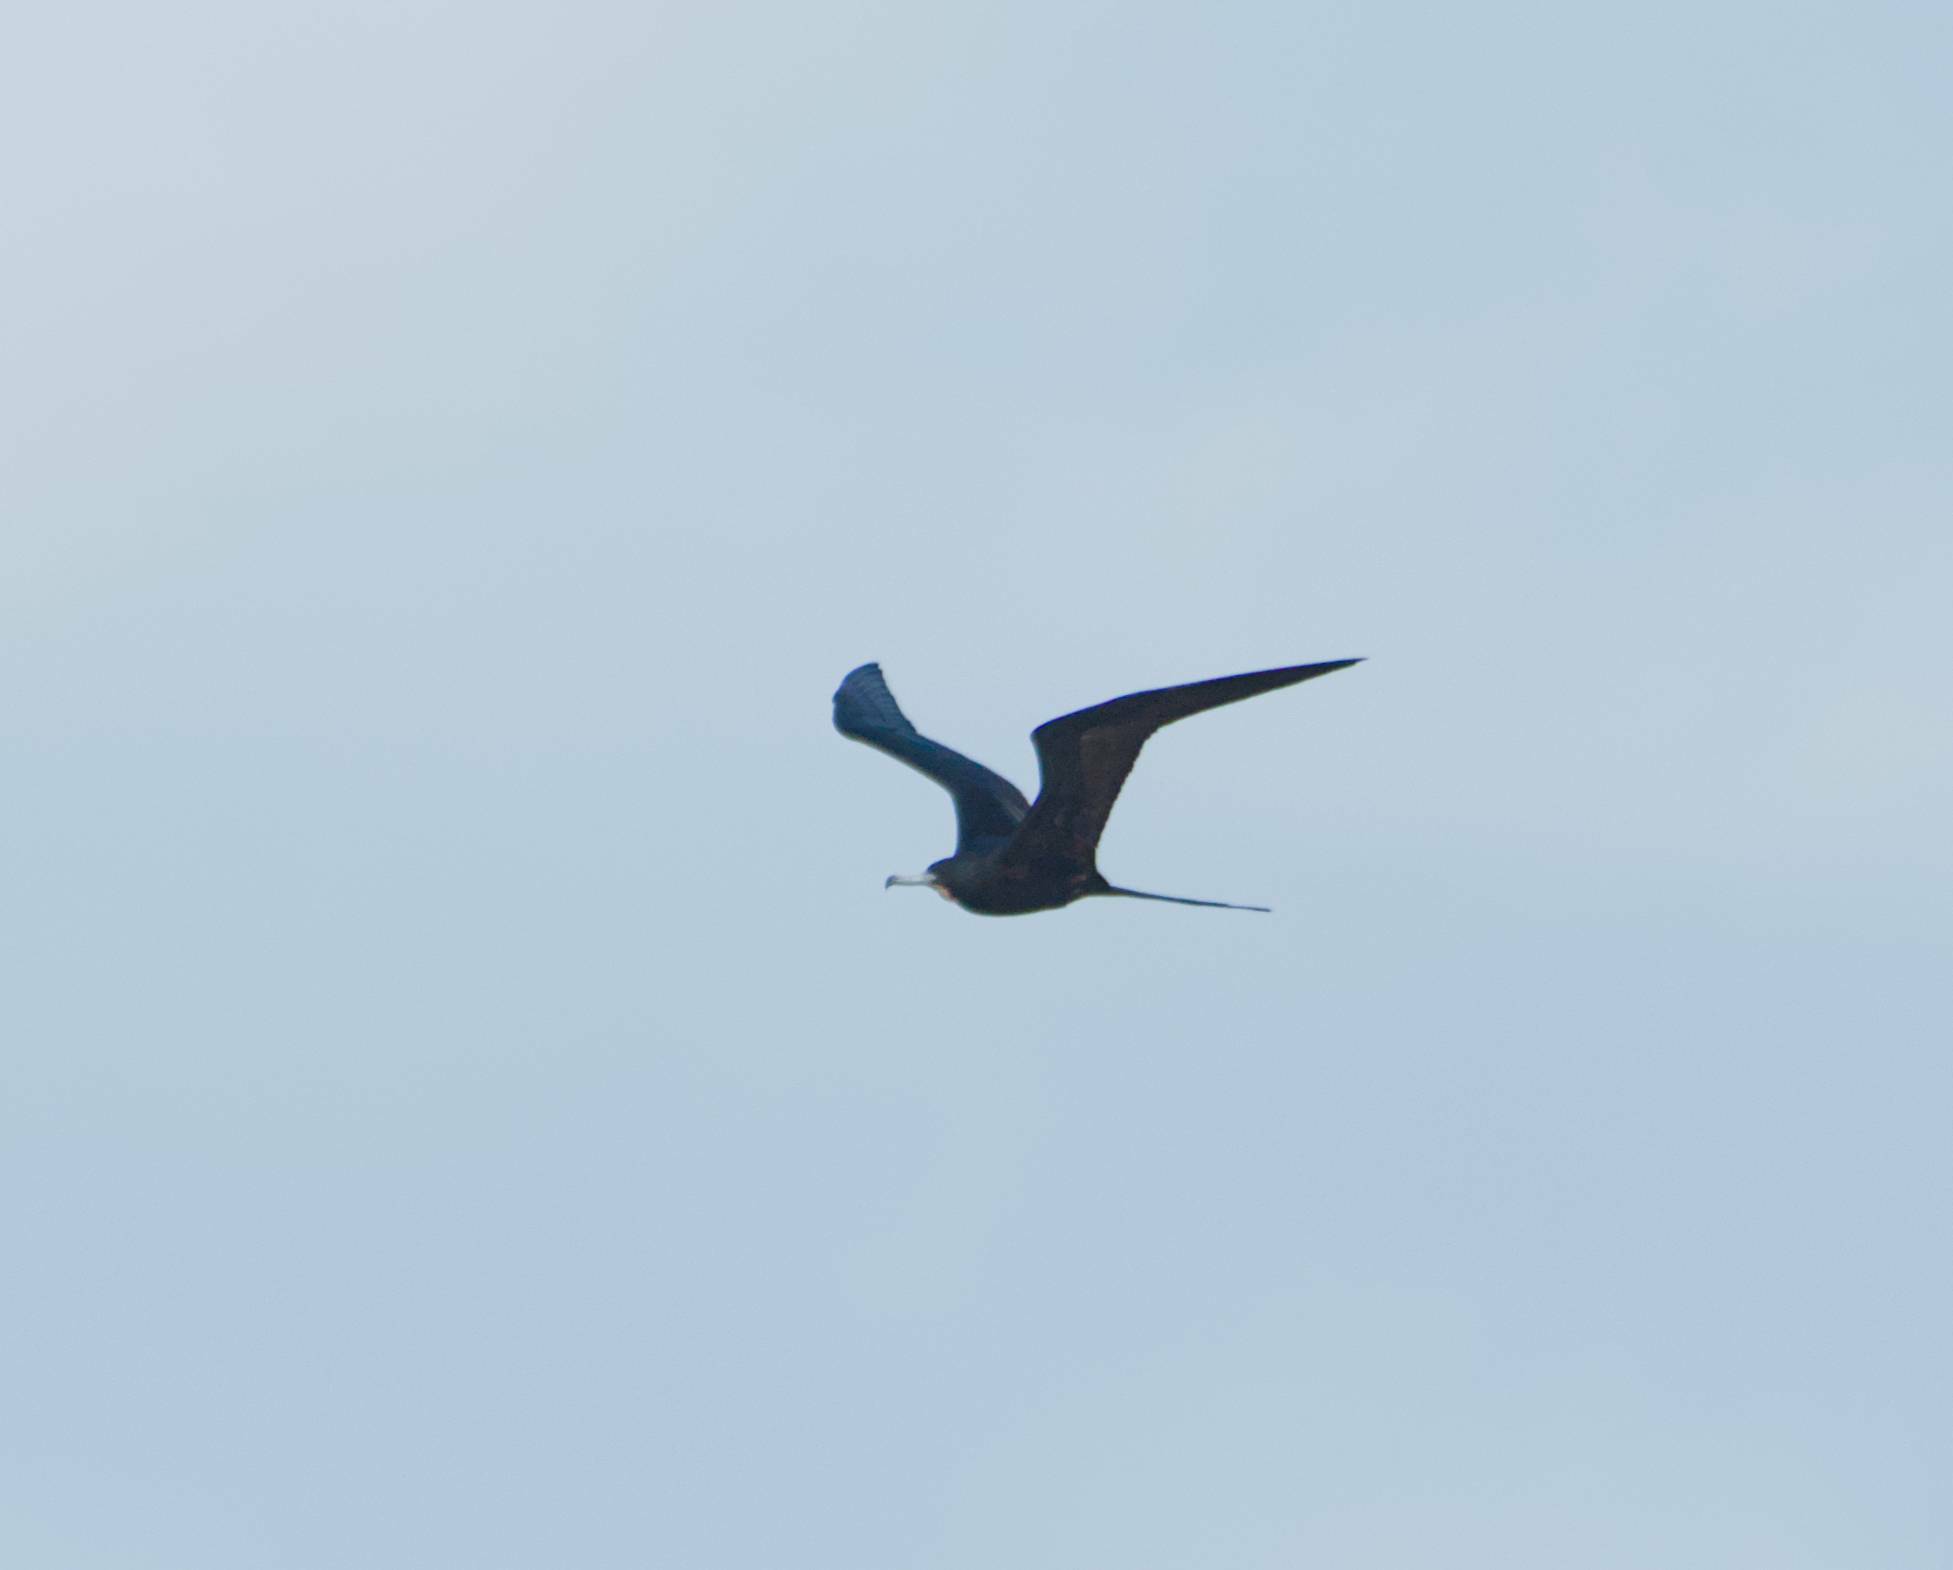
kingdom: Animalia
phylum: Chordata
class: Aves
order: Suliformes
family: Fregatidae
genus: Fregata
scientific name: Fregata magnificens
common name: Magnificent frigatebird
